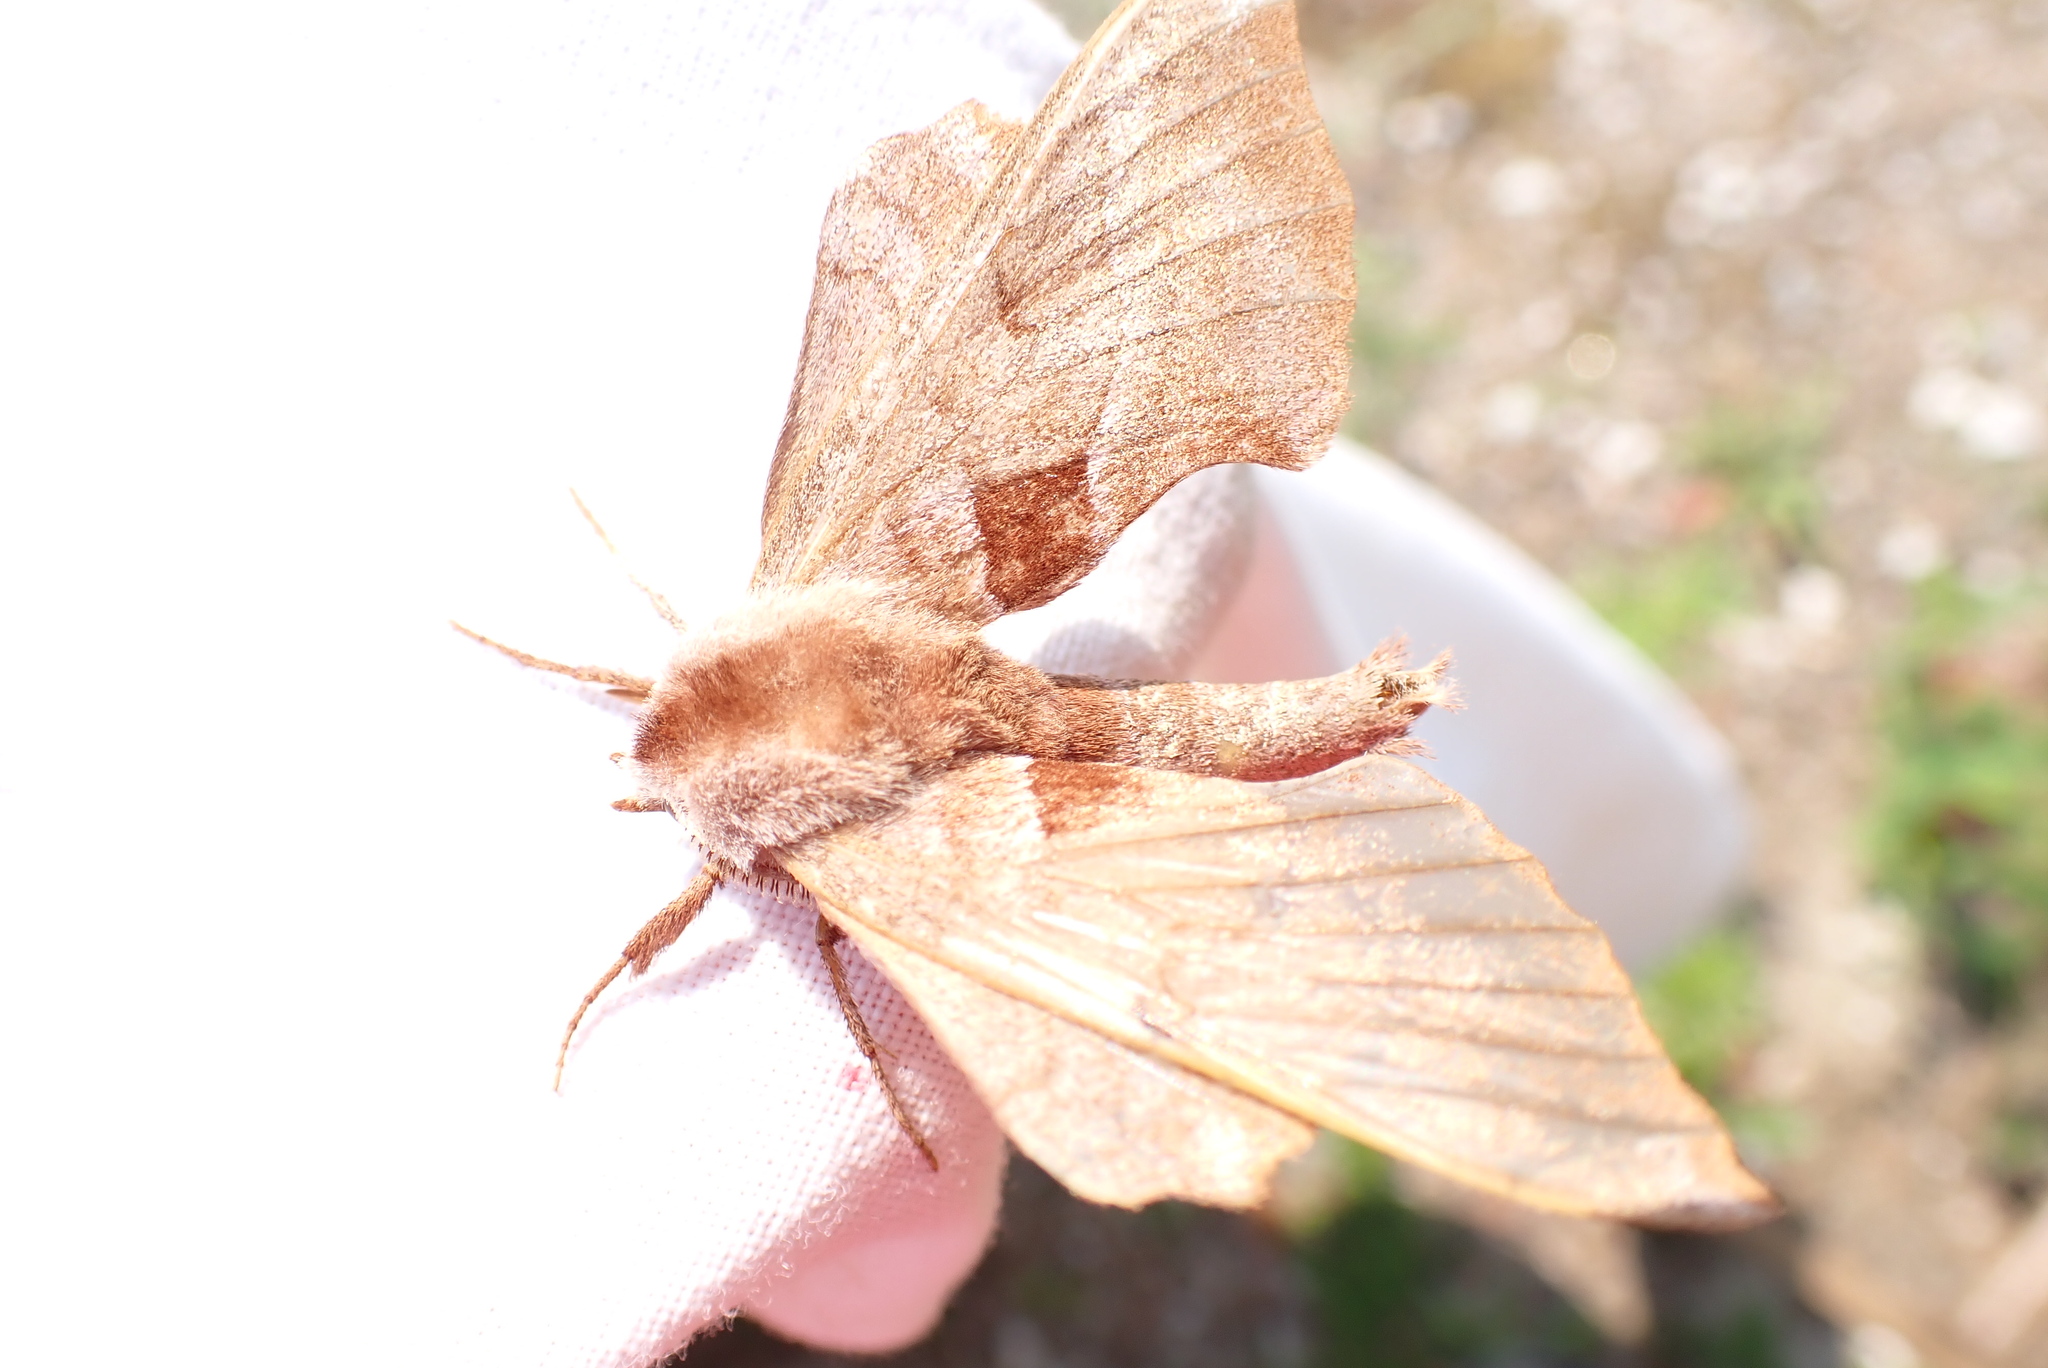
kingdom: Animalia
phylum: Arthropoda
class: Insecta
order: Lepidoptera
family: Sphingidae
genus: Amorpha
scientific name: Amorpha juglandis
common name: Walnut sphinx
